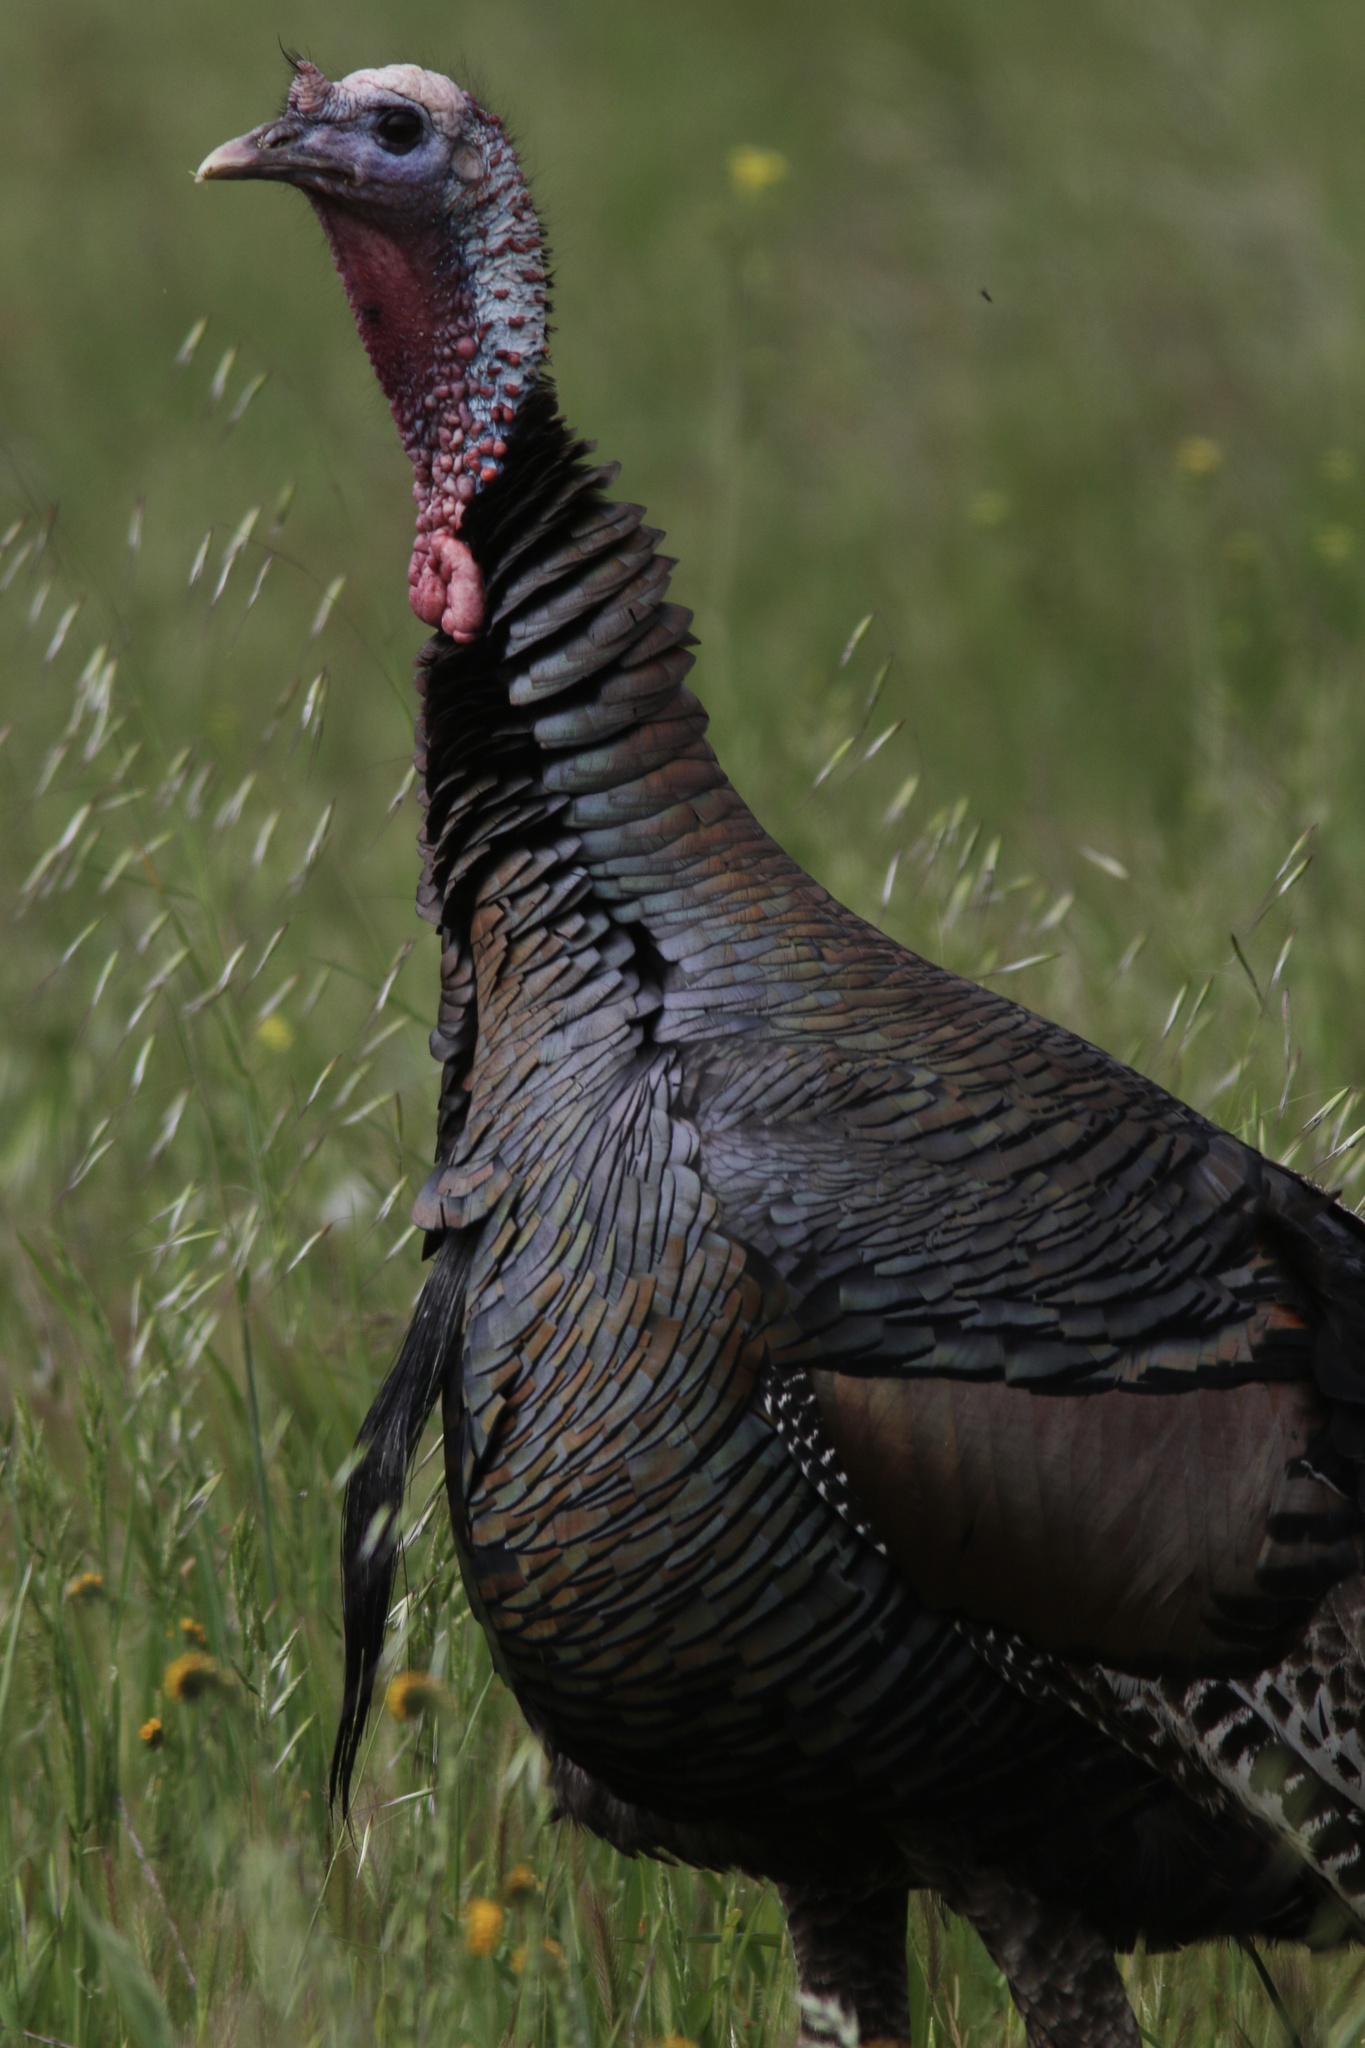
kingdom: Animalia
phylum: Chordata
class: Aves
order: Galliformes
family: Phasianidae
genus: Meleagris
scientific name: Meleagris gallopavo
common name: Wild turkey
